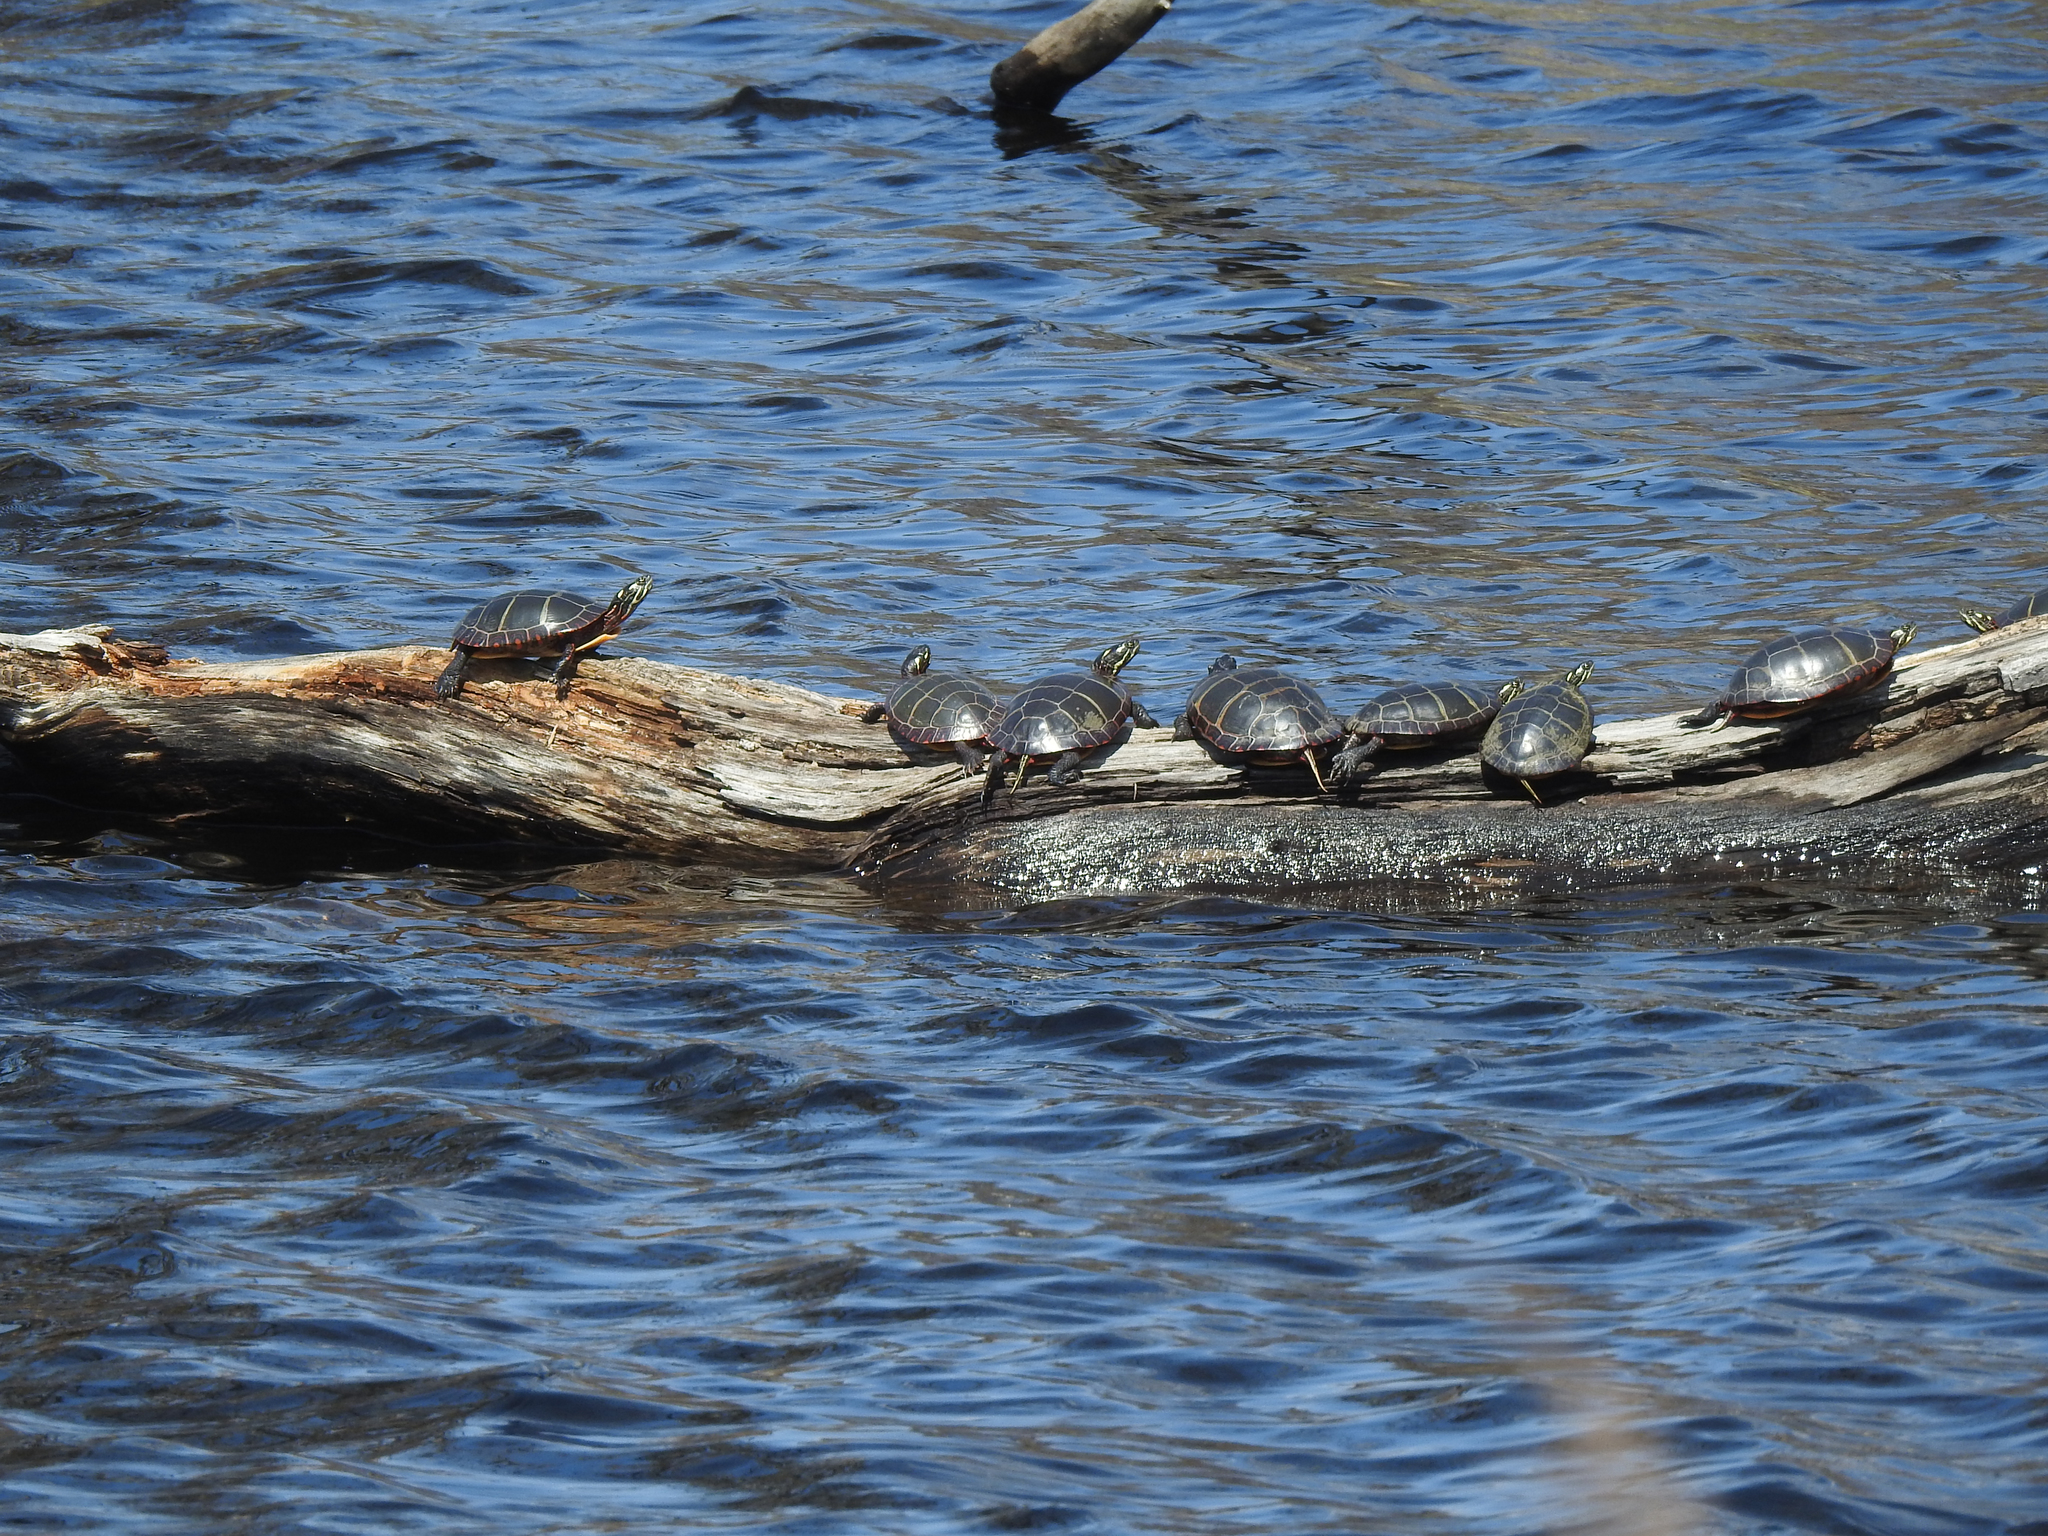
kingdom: Animalia
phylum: Chordata
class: Testudines
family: Emydidae
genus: Chrysemys
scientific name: Chrysemys picta
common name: Painted turtle
